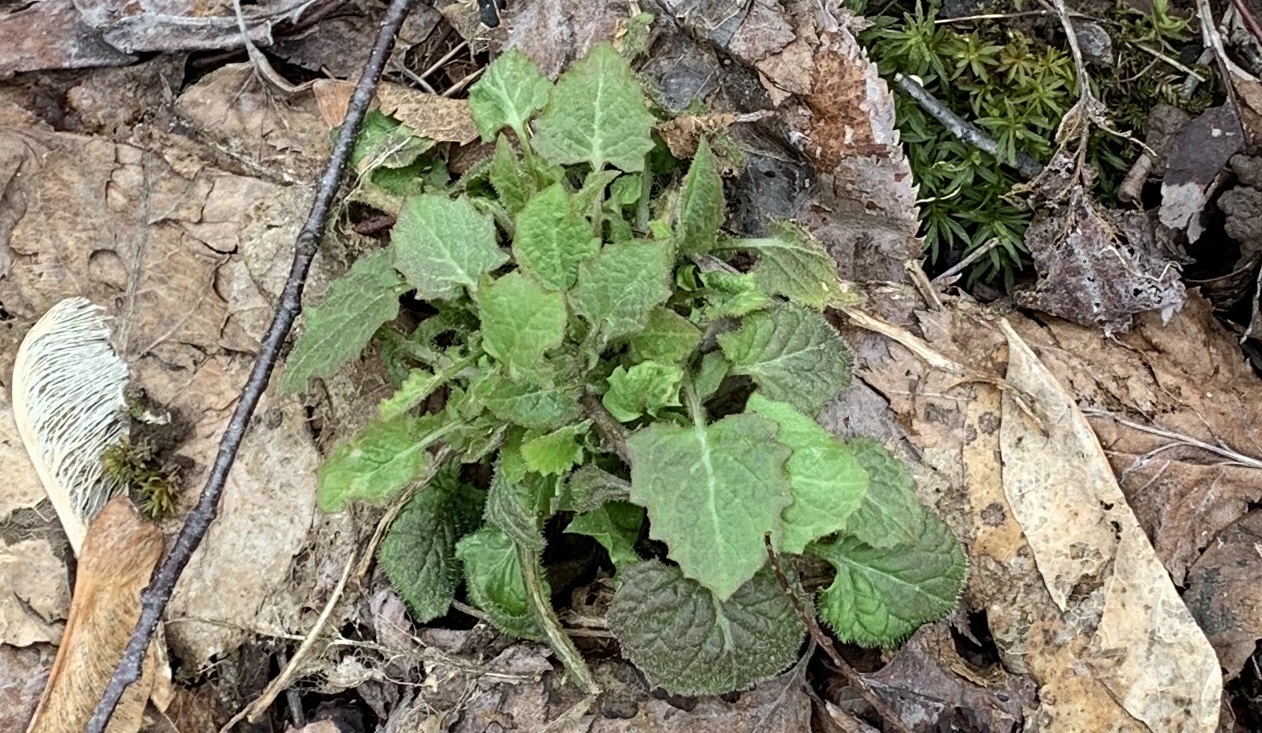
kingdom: Plantae
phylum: Tracheophyta
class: Magnoliopsida
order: Asterales
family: Asteraceae
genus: Lapsana
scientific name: Lapsana communis
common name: Nipplewort
